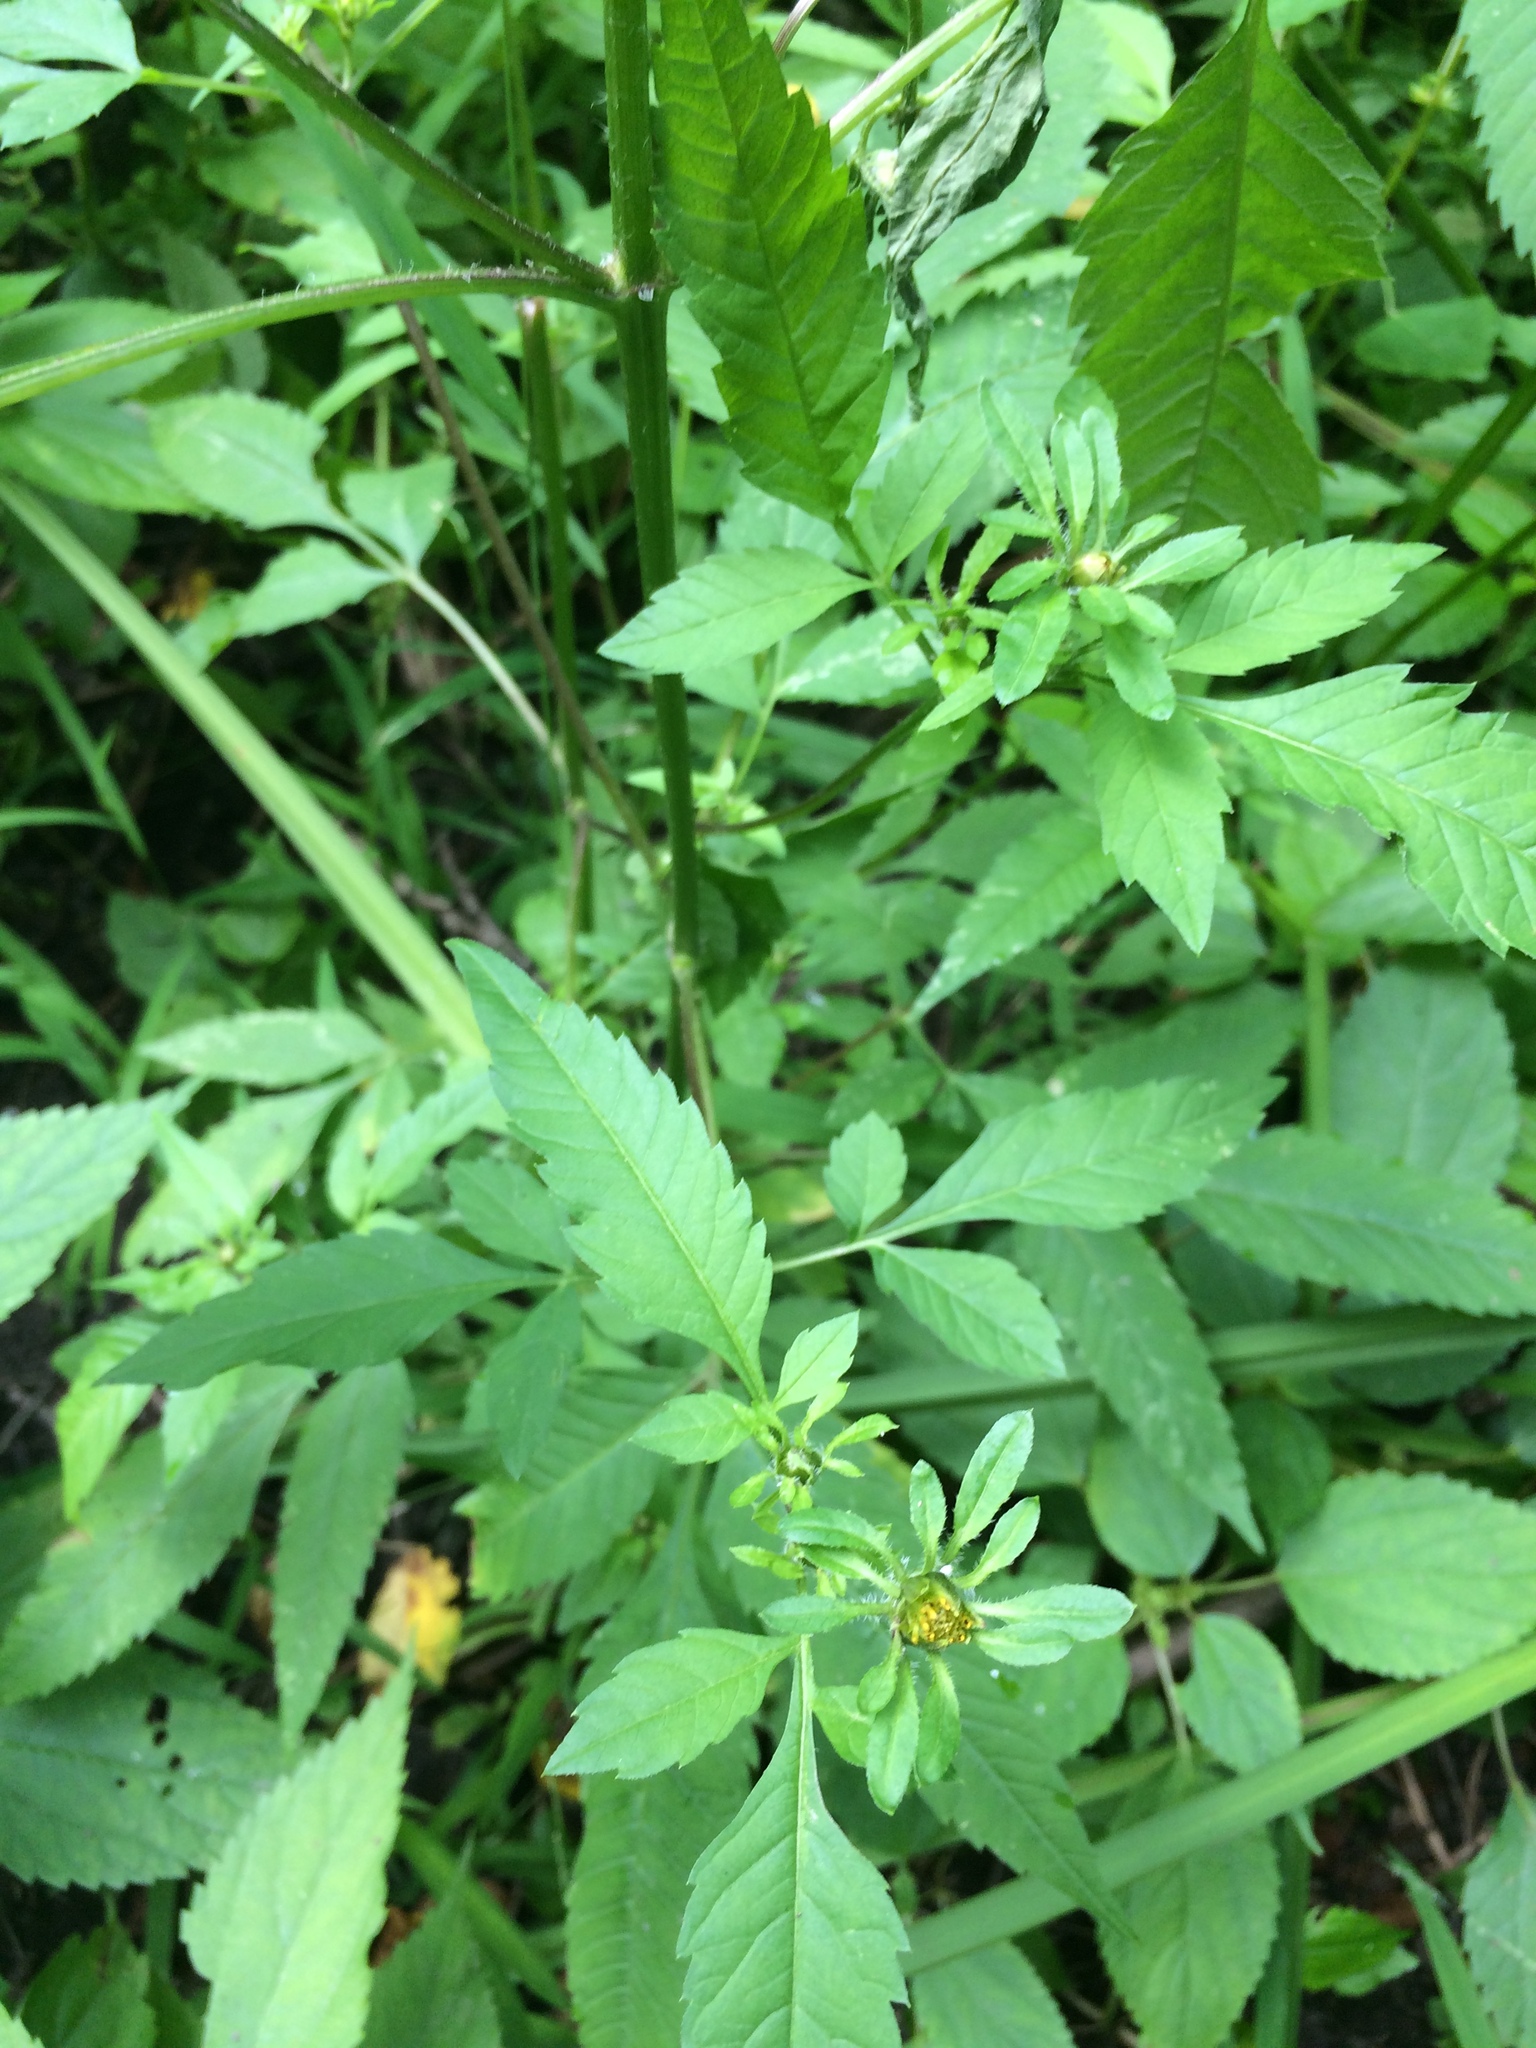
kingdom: Plantae
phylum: Tracheophyta
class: Magnoliopsida
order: Asterales
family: Asteraceae
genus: Bidens
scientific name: Bidens vulgata
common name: Tall beggarticks
